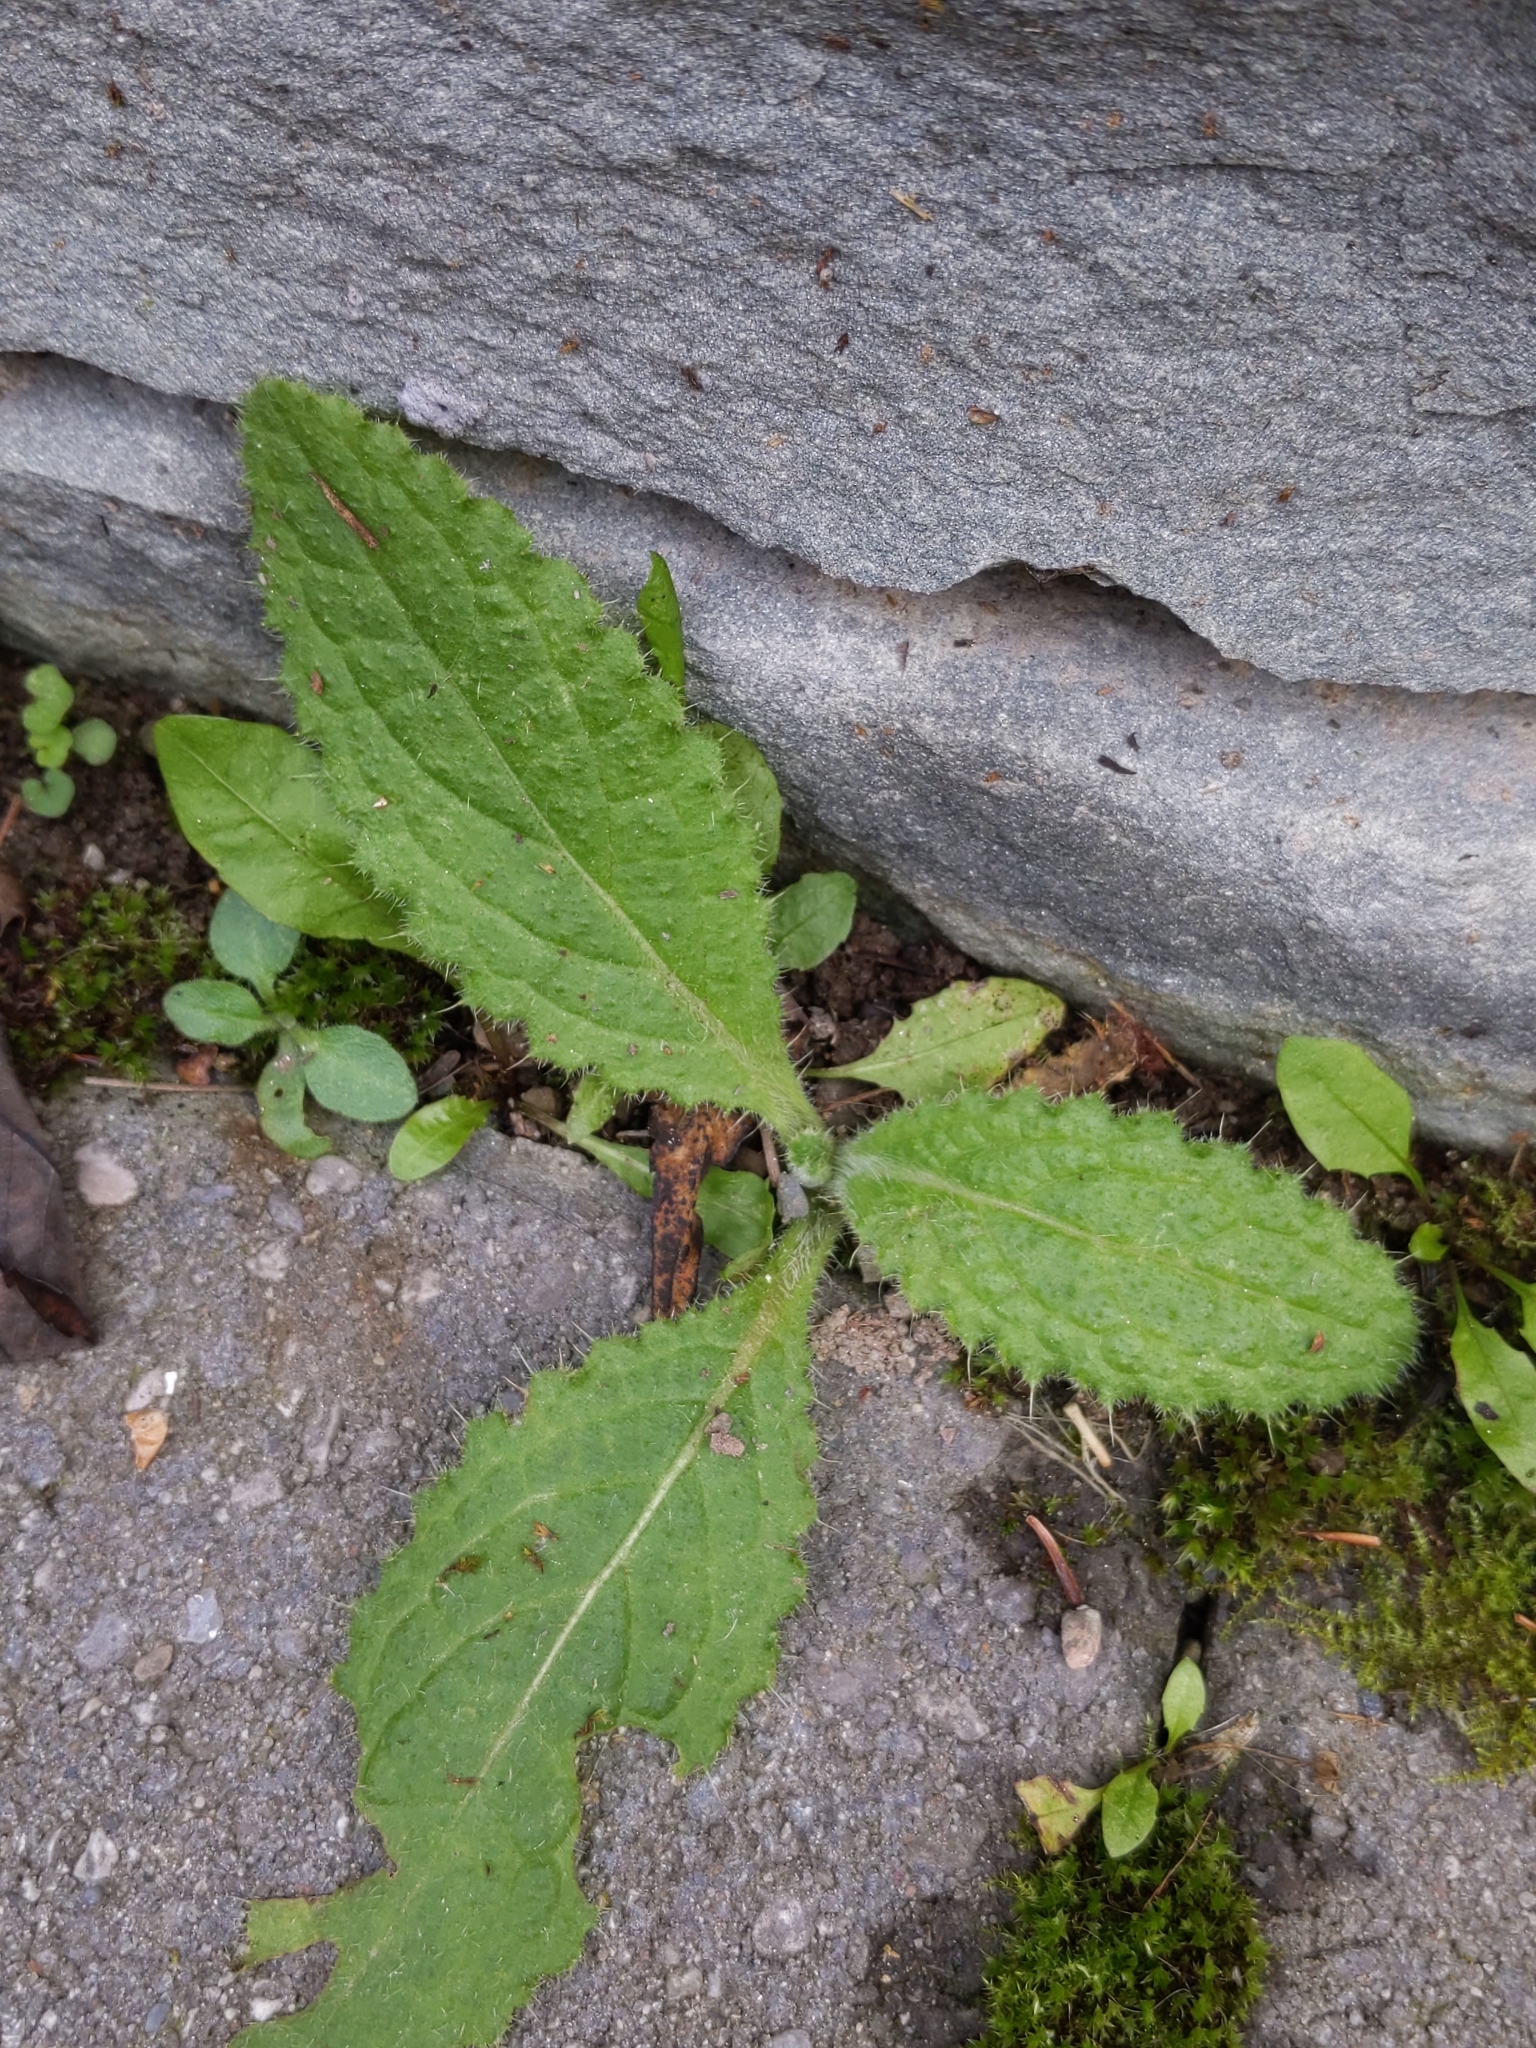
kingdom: Plantae
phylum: Tracheophyta
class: Magnoliopsida
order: Asterales
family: Asteraceae
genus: Cirsium
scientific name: Cirsium vulgare
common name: Bull thistle
